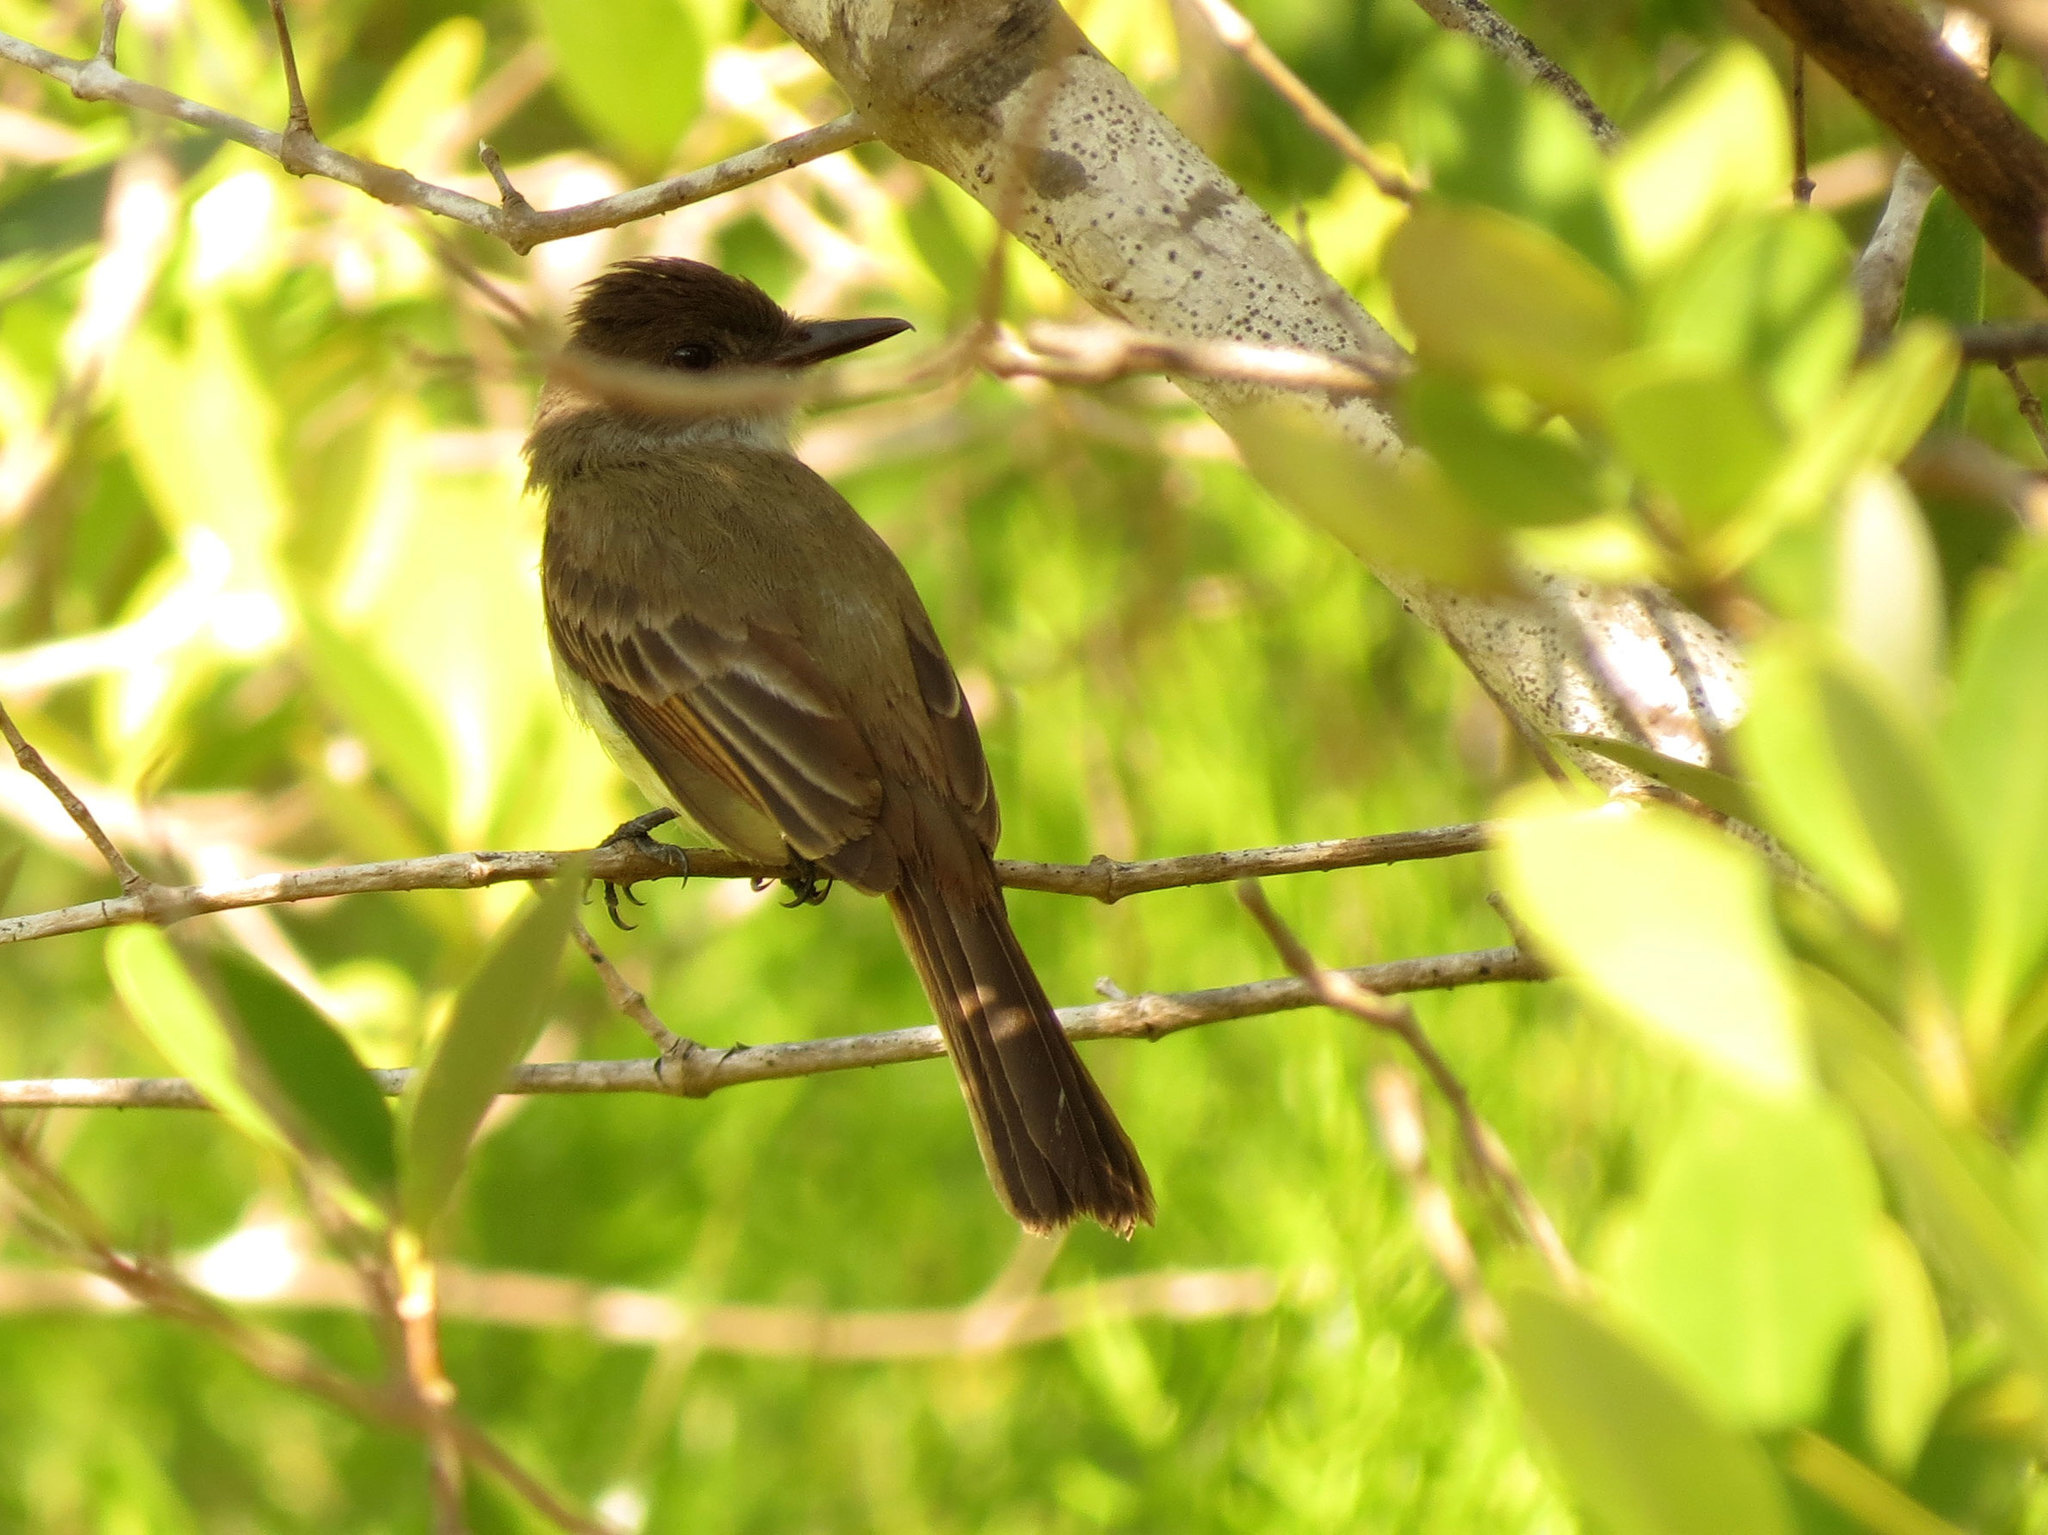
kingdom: Animalia
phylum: Chordata
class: Aves
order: Passeriformes
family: Tyrannidae
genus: Myiarchus
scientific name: Myiarchus tuberculifer
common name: Dusky-capped flycatcher
